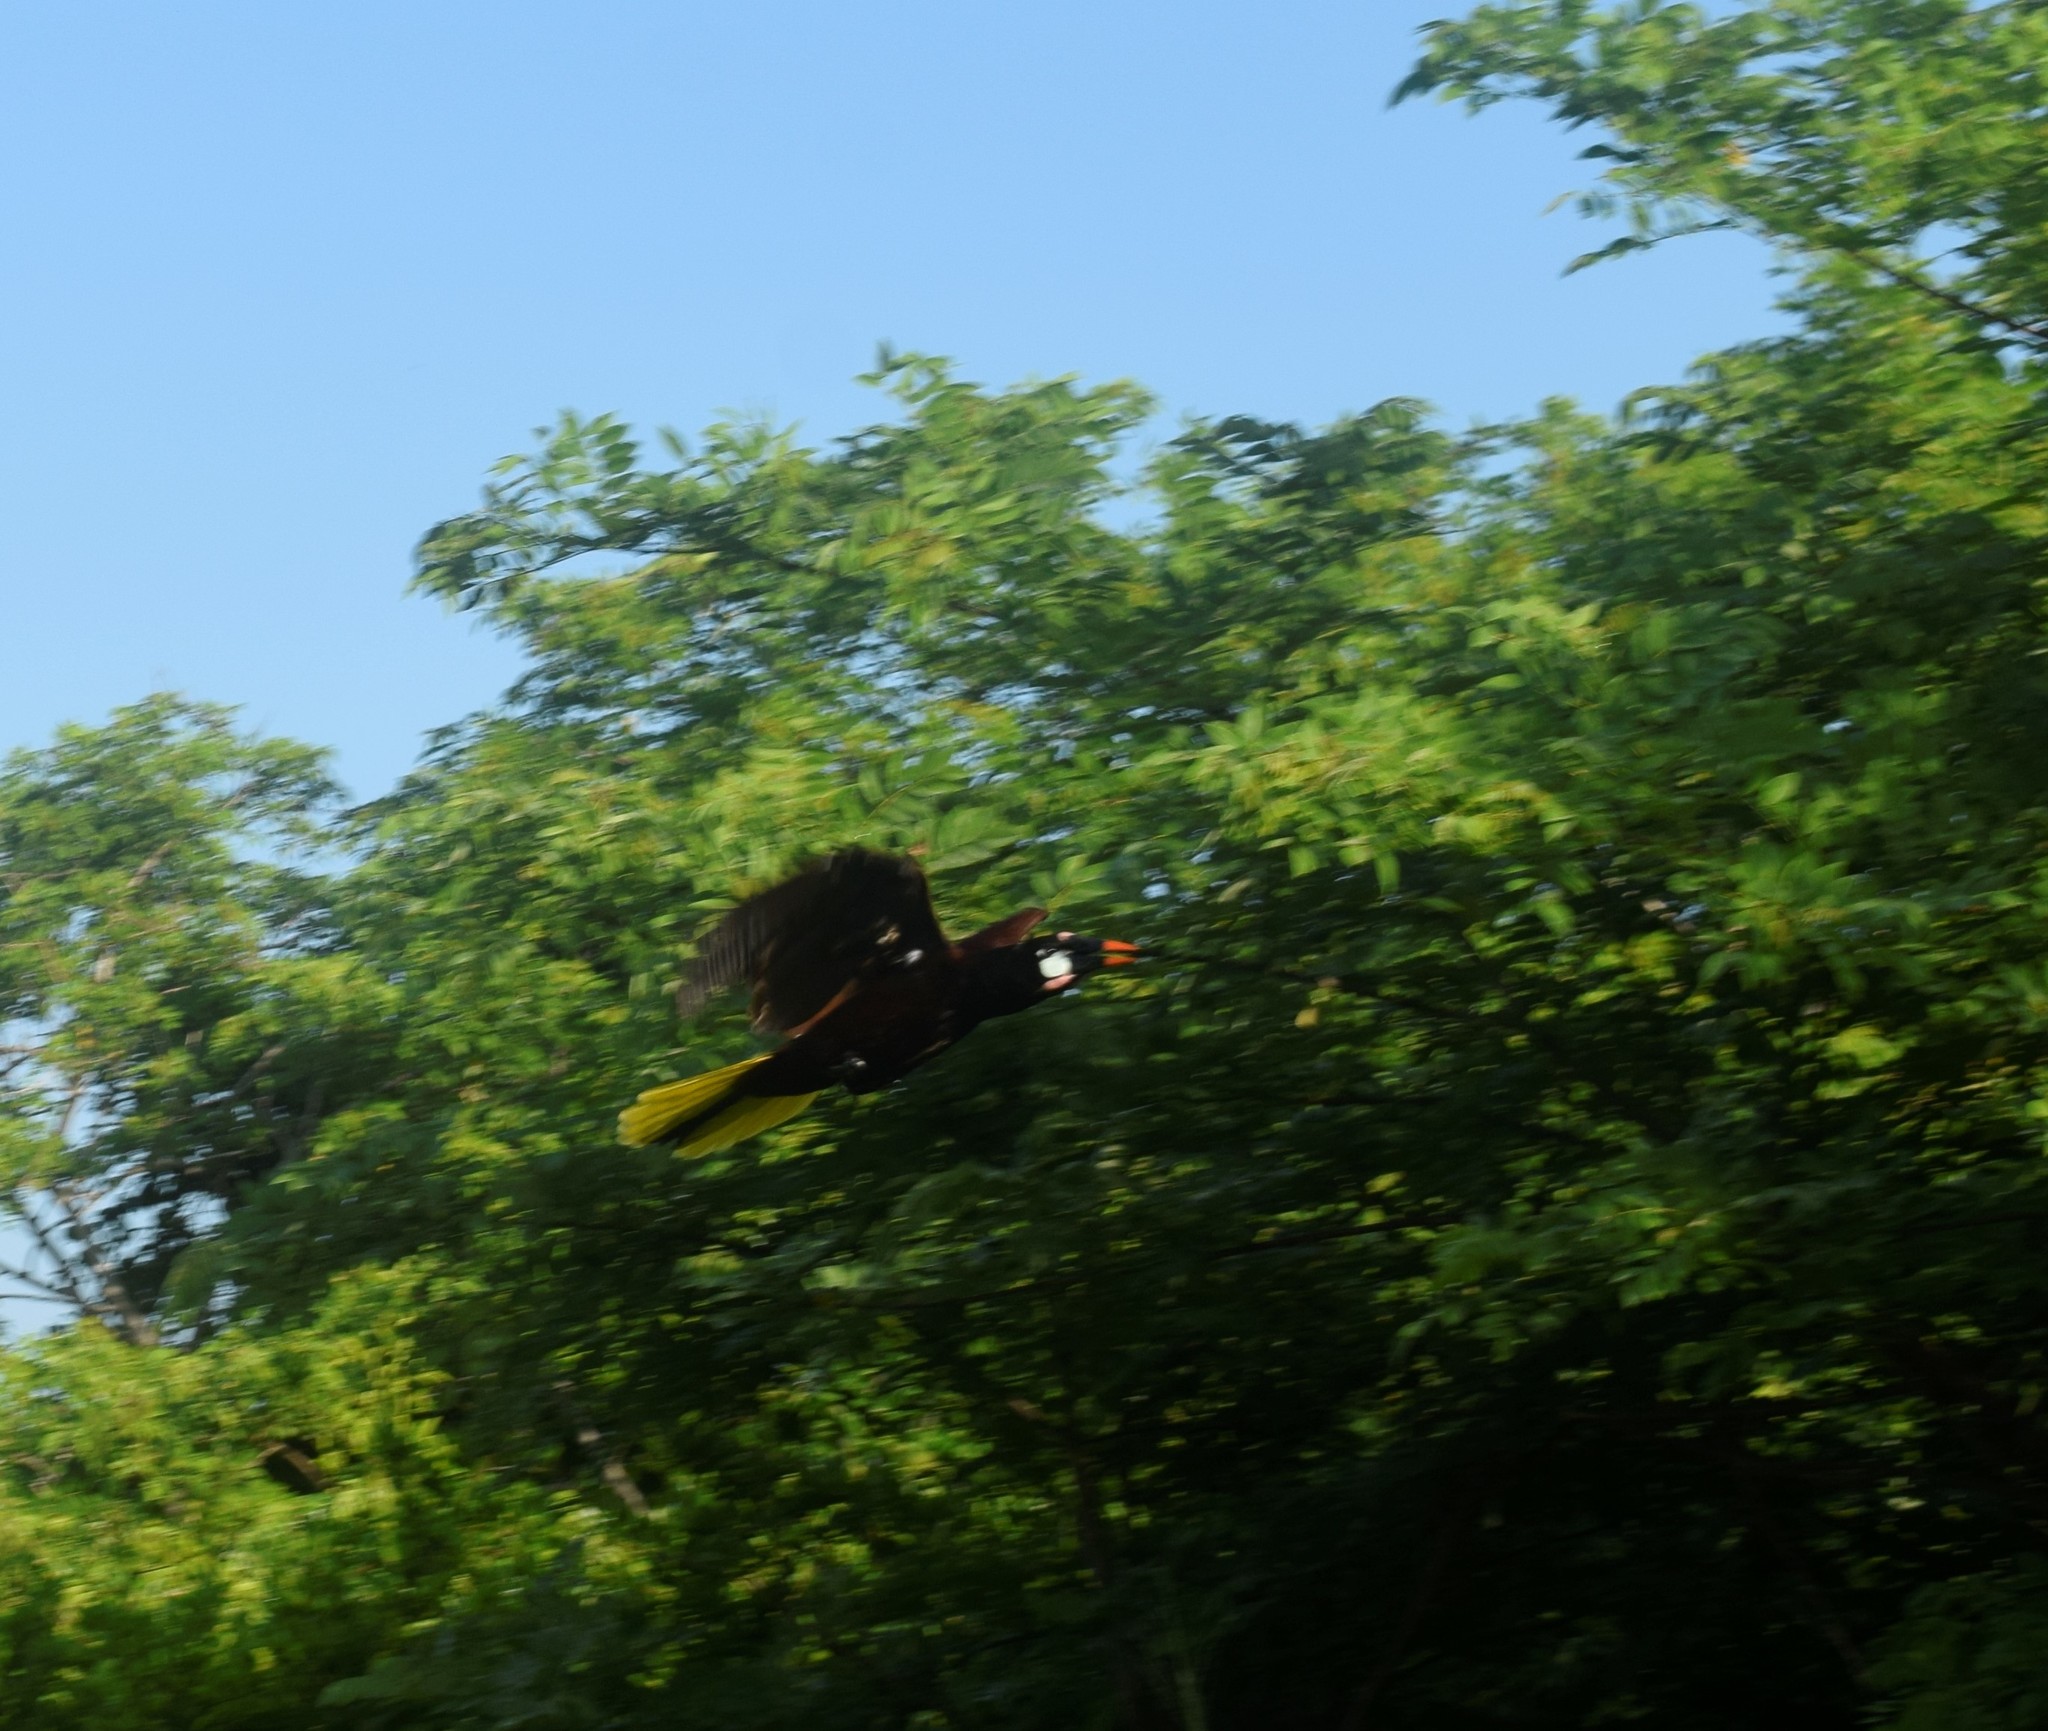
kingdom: Animalia
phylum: Chordata
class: Aves
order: Passeriformes
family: Icteridae
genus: Psarocolius
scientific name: Psarocolius montezuma
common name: Montezuma oropendola
